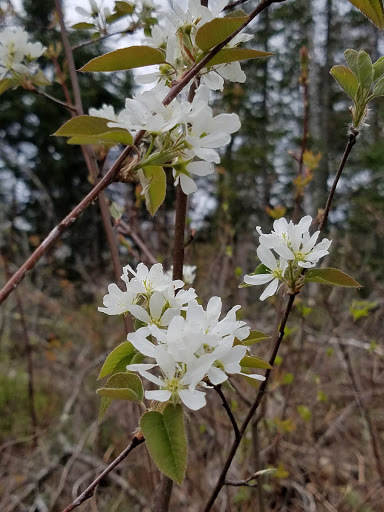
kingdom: Plantae
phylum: Tracheophyta
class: Magnoliopsida
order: Rosales
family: Rosaceae
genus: Amelanchier
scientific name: Amelanchier sanguinea
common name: Huron serviceberry
